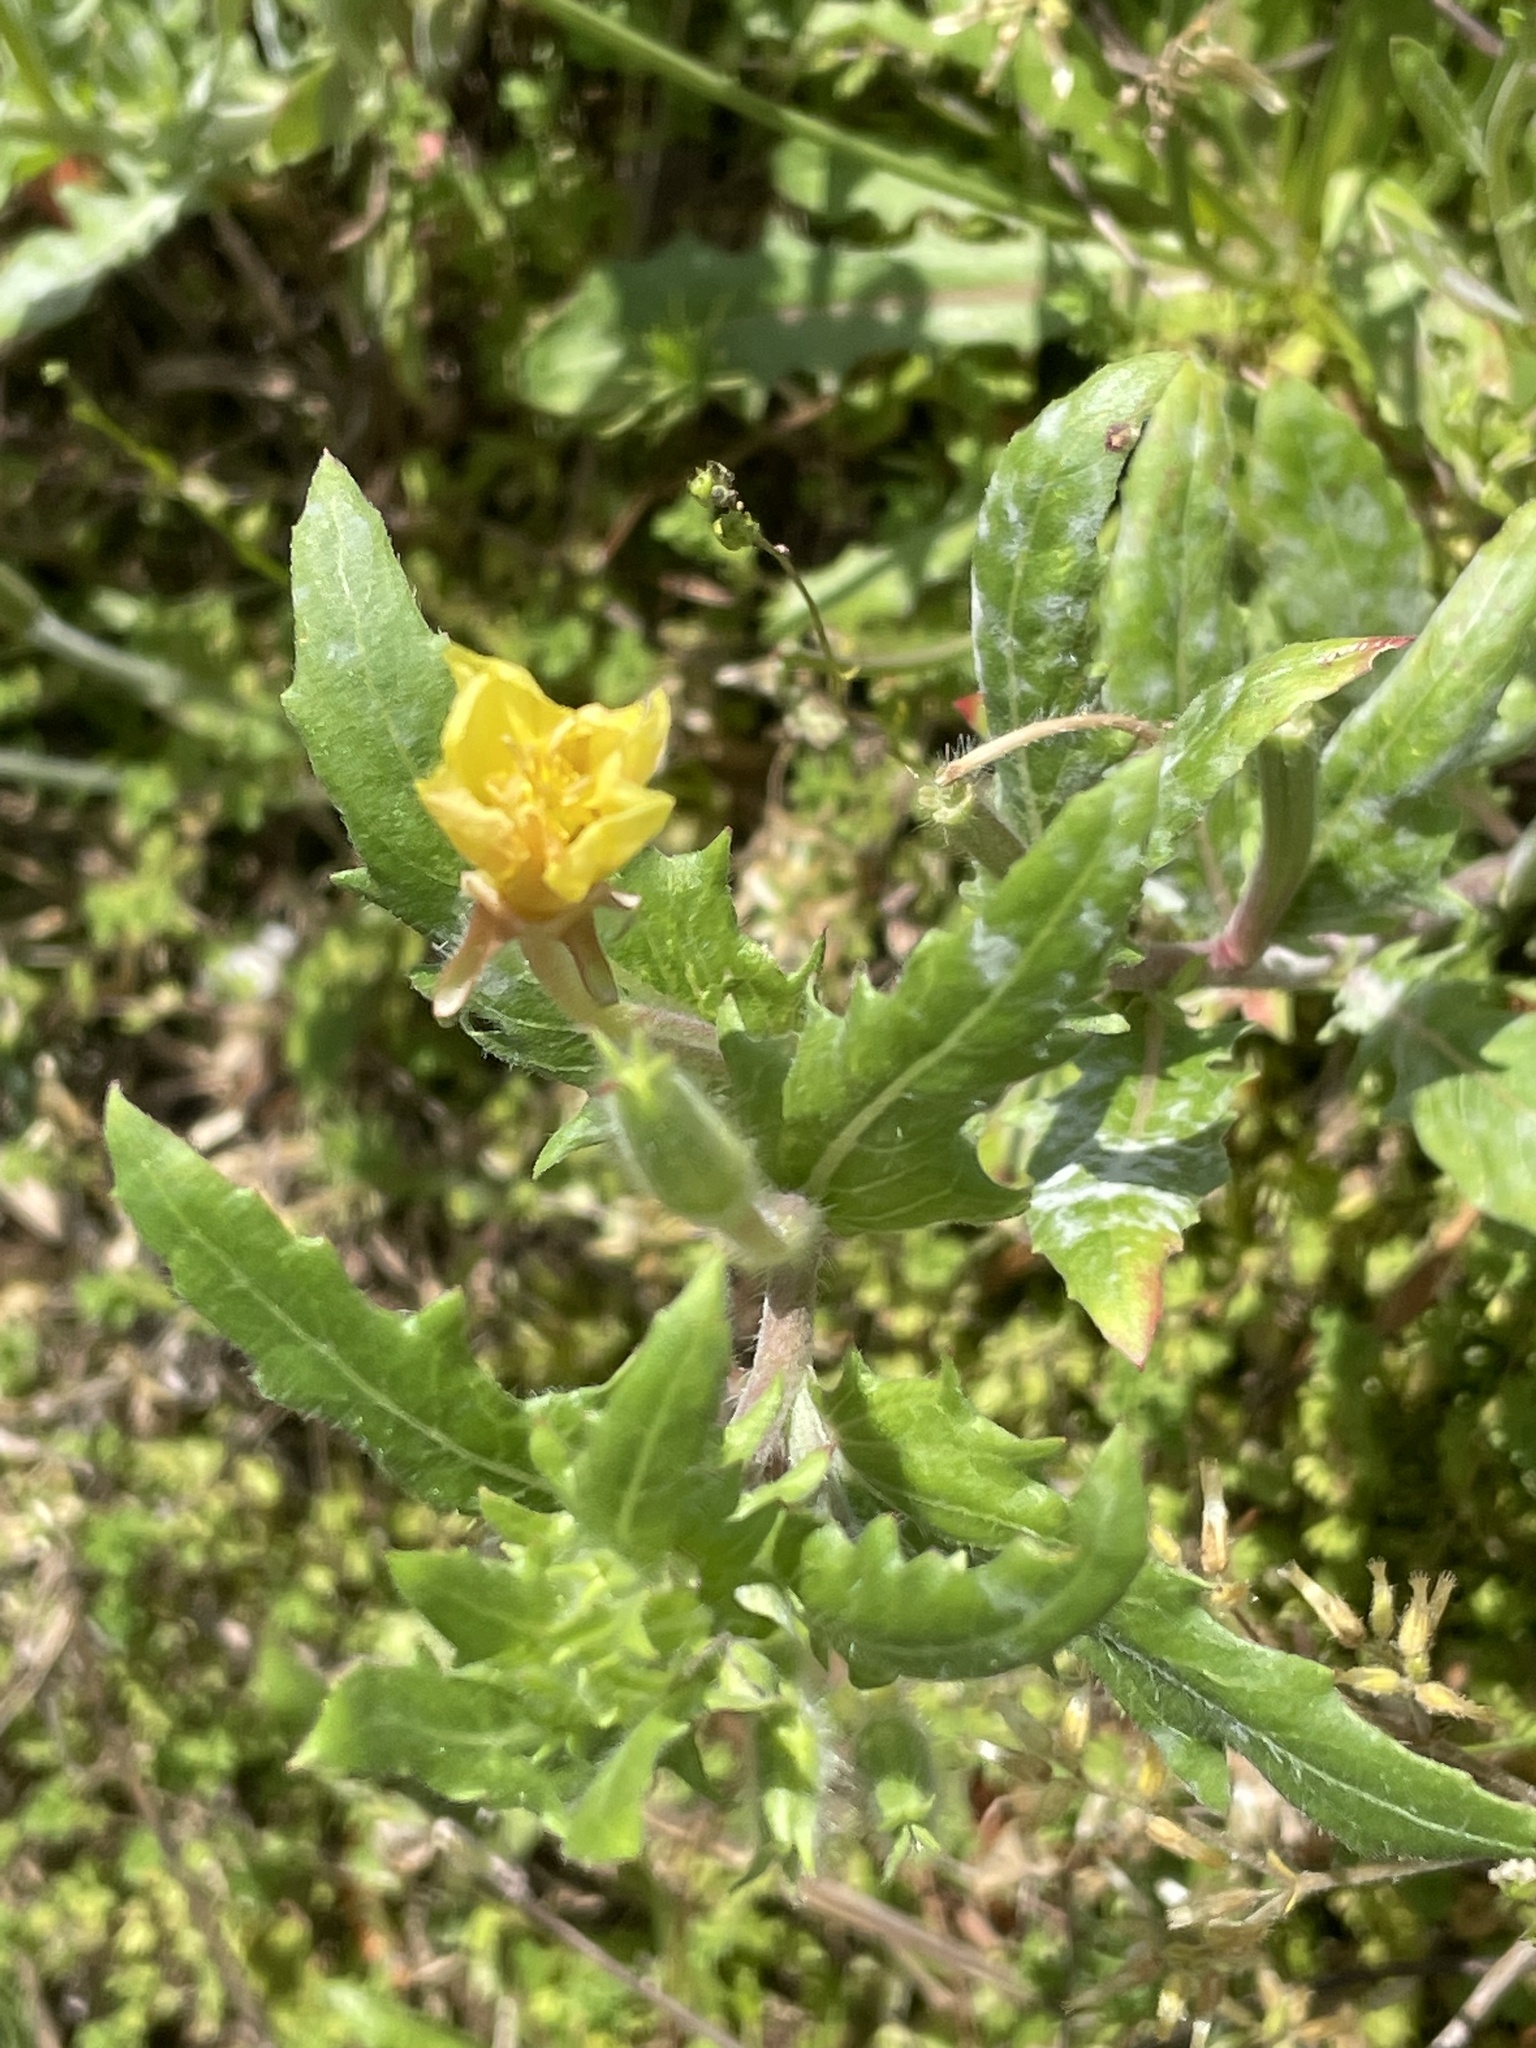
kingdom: Plantae
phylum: Tracheophyta
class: Magnoliopsida
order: Myrtales
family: Onagraceae
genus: Oenothera
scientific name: Oenothera laciniata
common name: Cut-leaved evening-primrose
